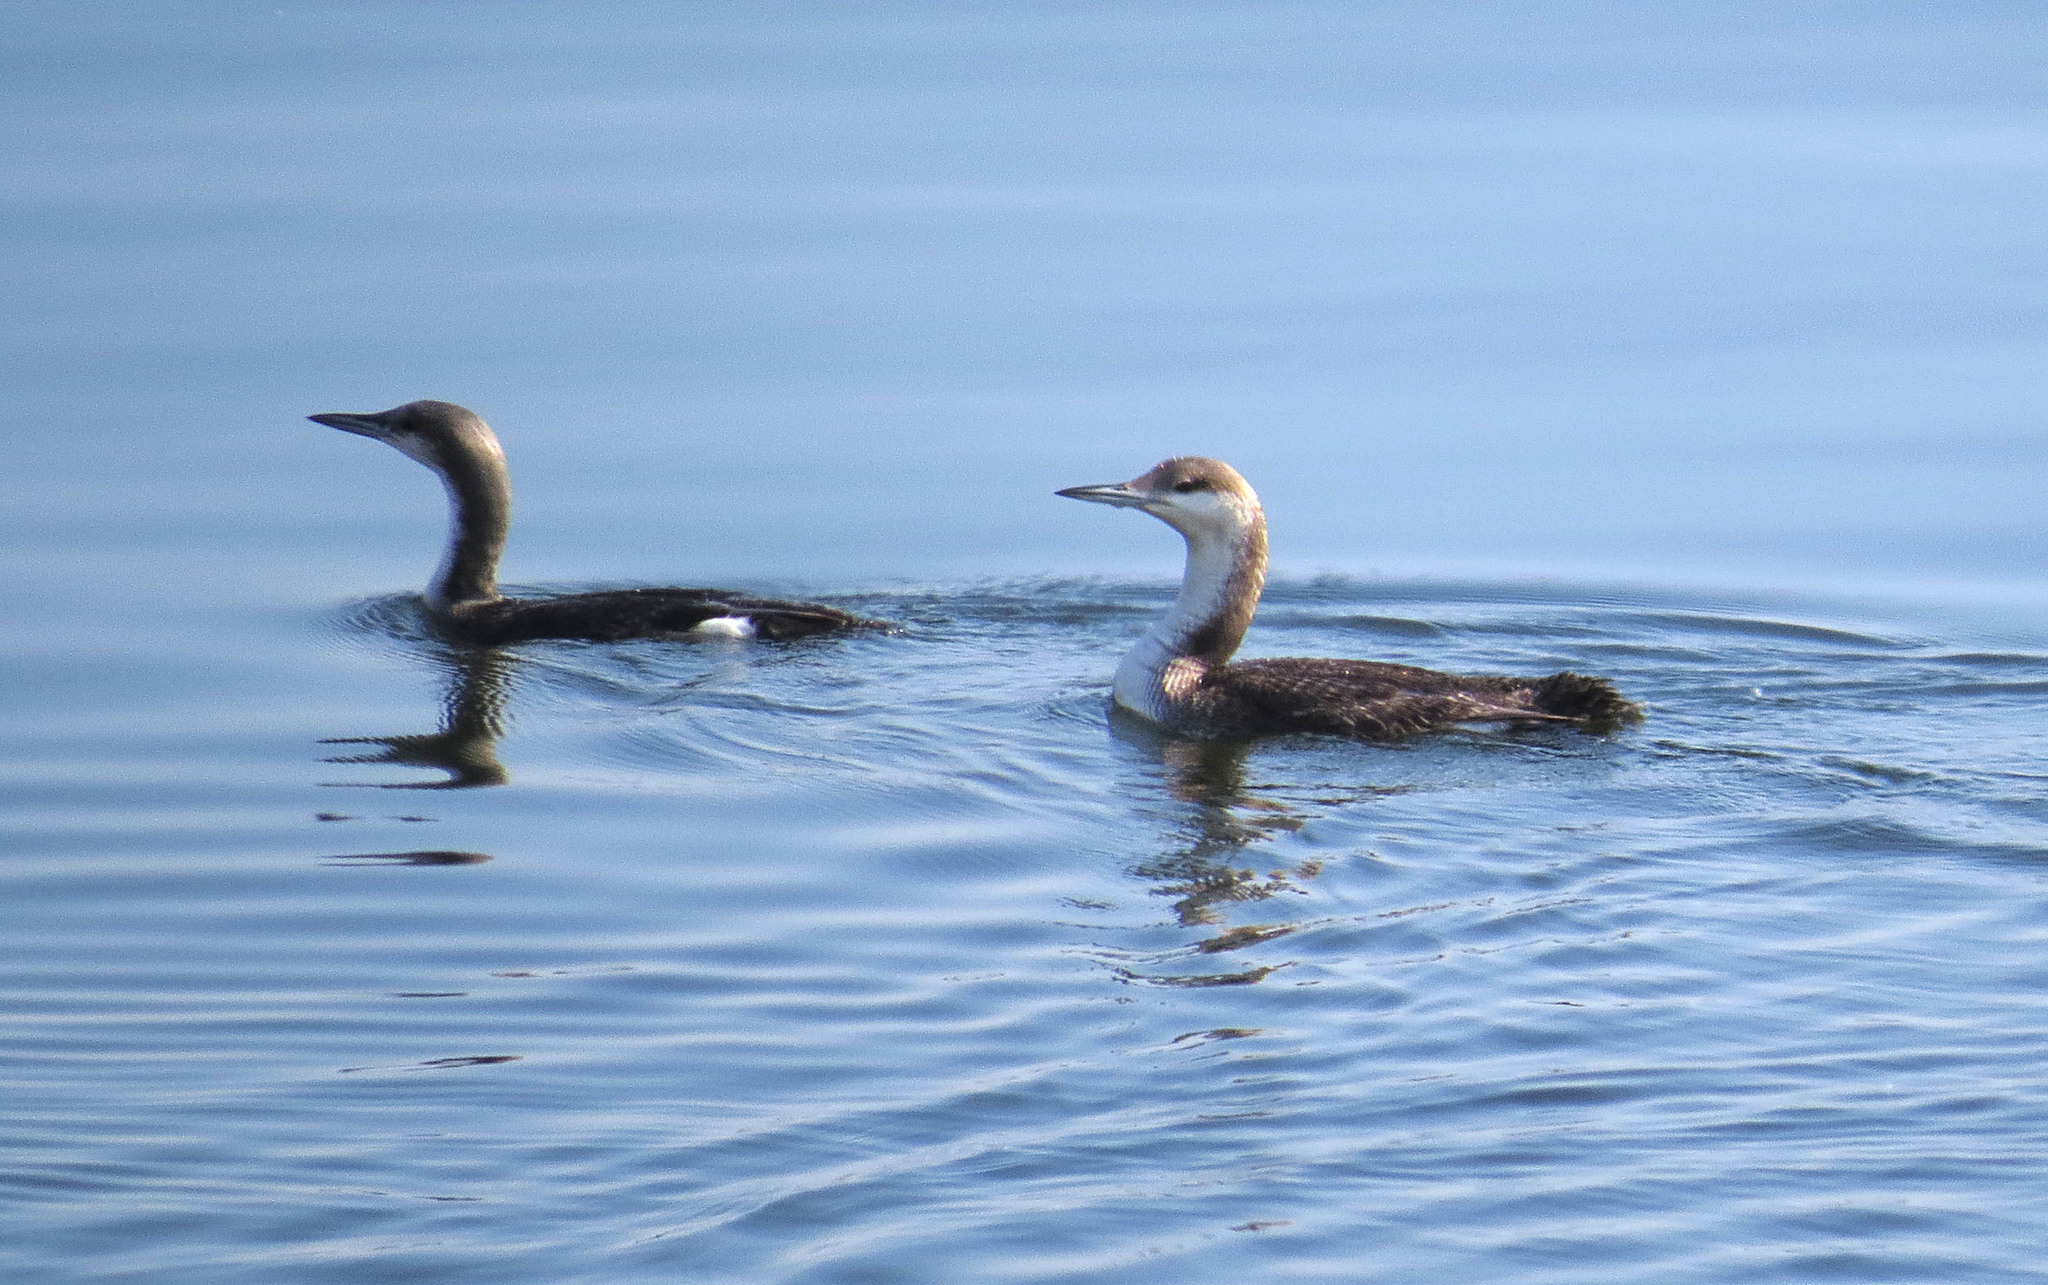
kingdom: Animalia
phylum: Chordata
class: Aves
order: Gaviiformes
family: Gaviidae
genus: Gavia
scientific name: Gavia arctica
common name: Black-throated loon
